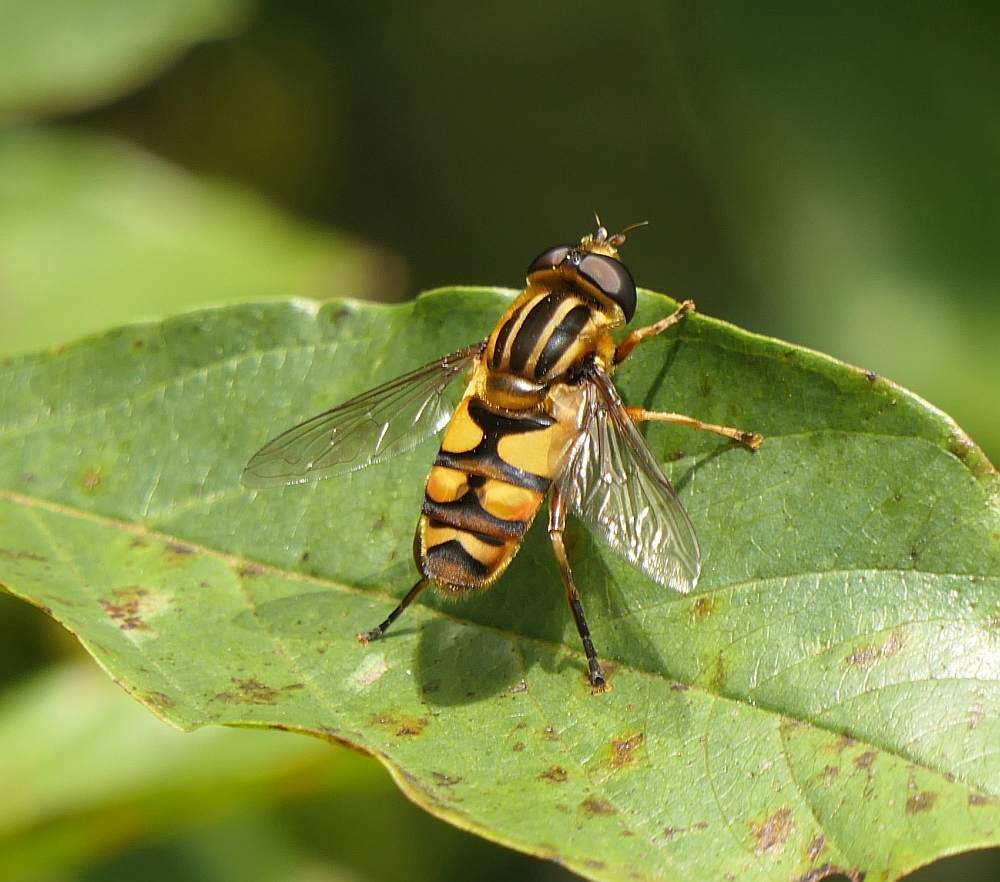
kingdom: Animalia
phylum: Arthropoda
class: Insecta
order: Diptera
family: Syrphidae
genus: Helophilus
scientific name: Helophilus fasciatus
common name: Narrow-headed marsh fly
